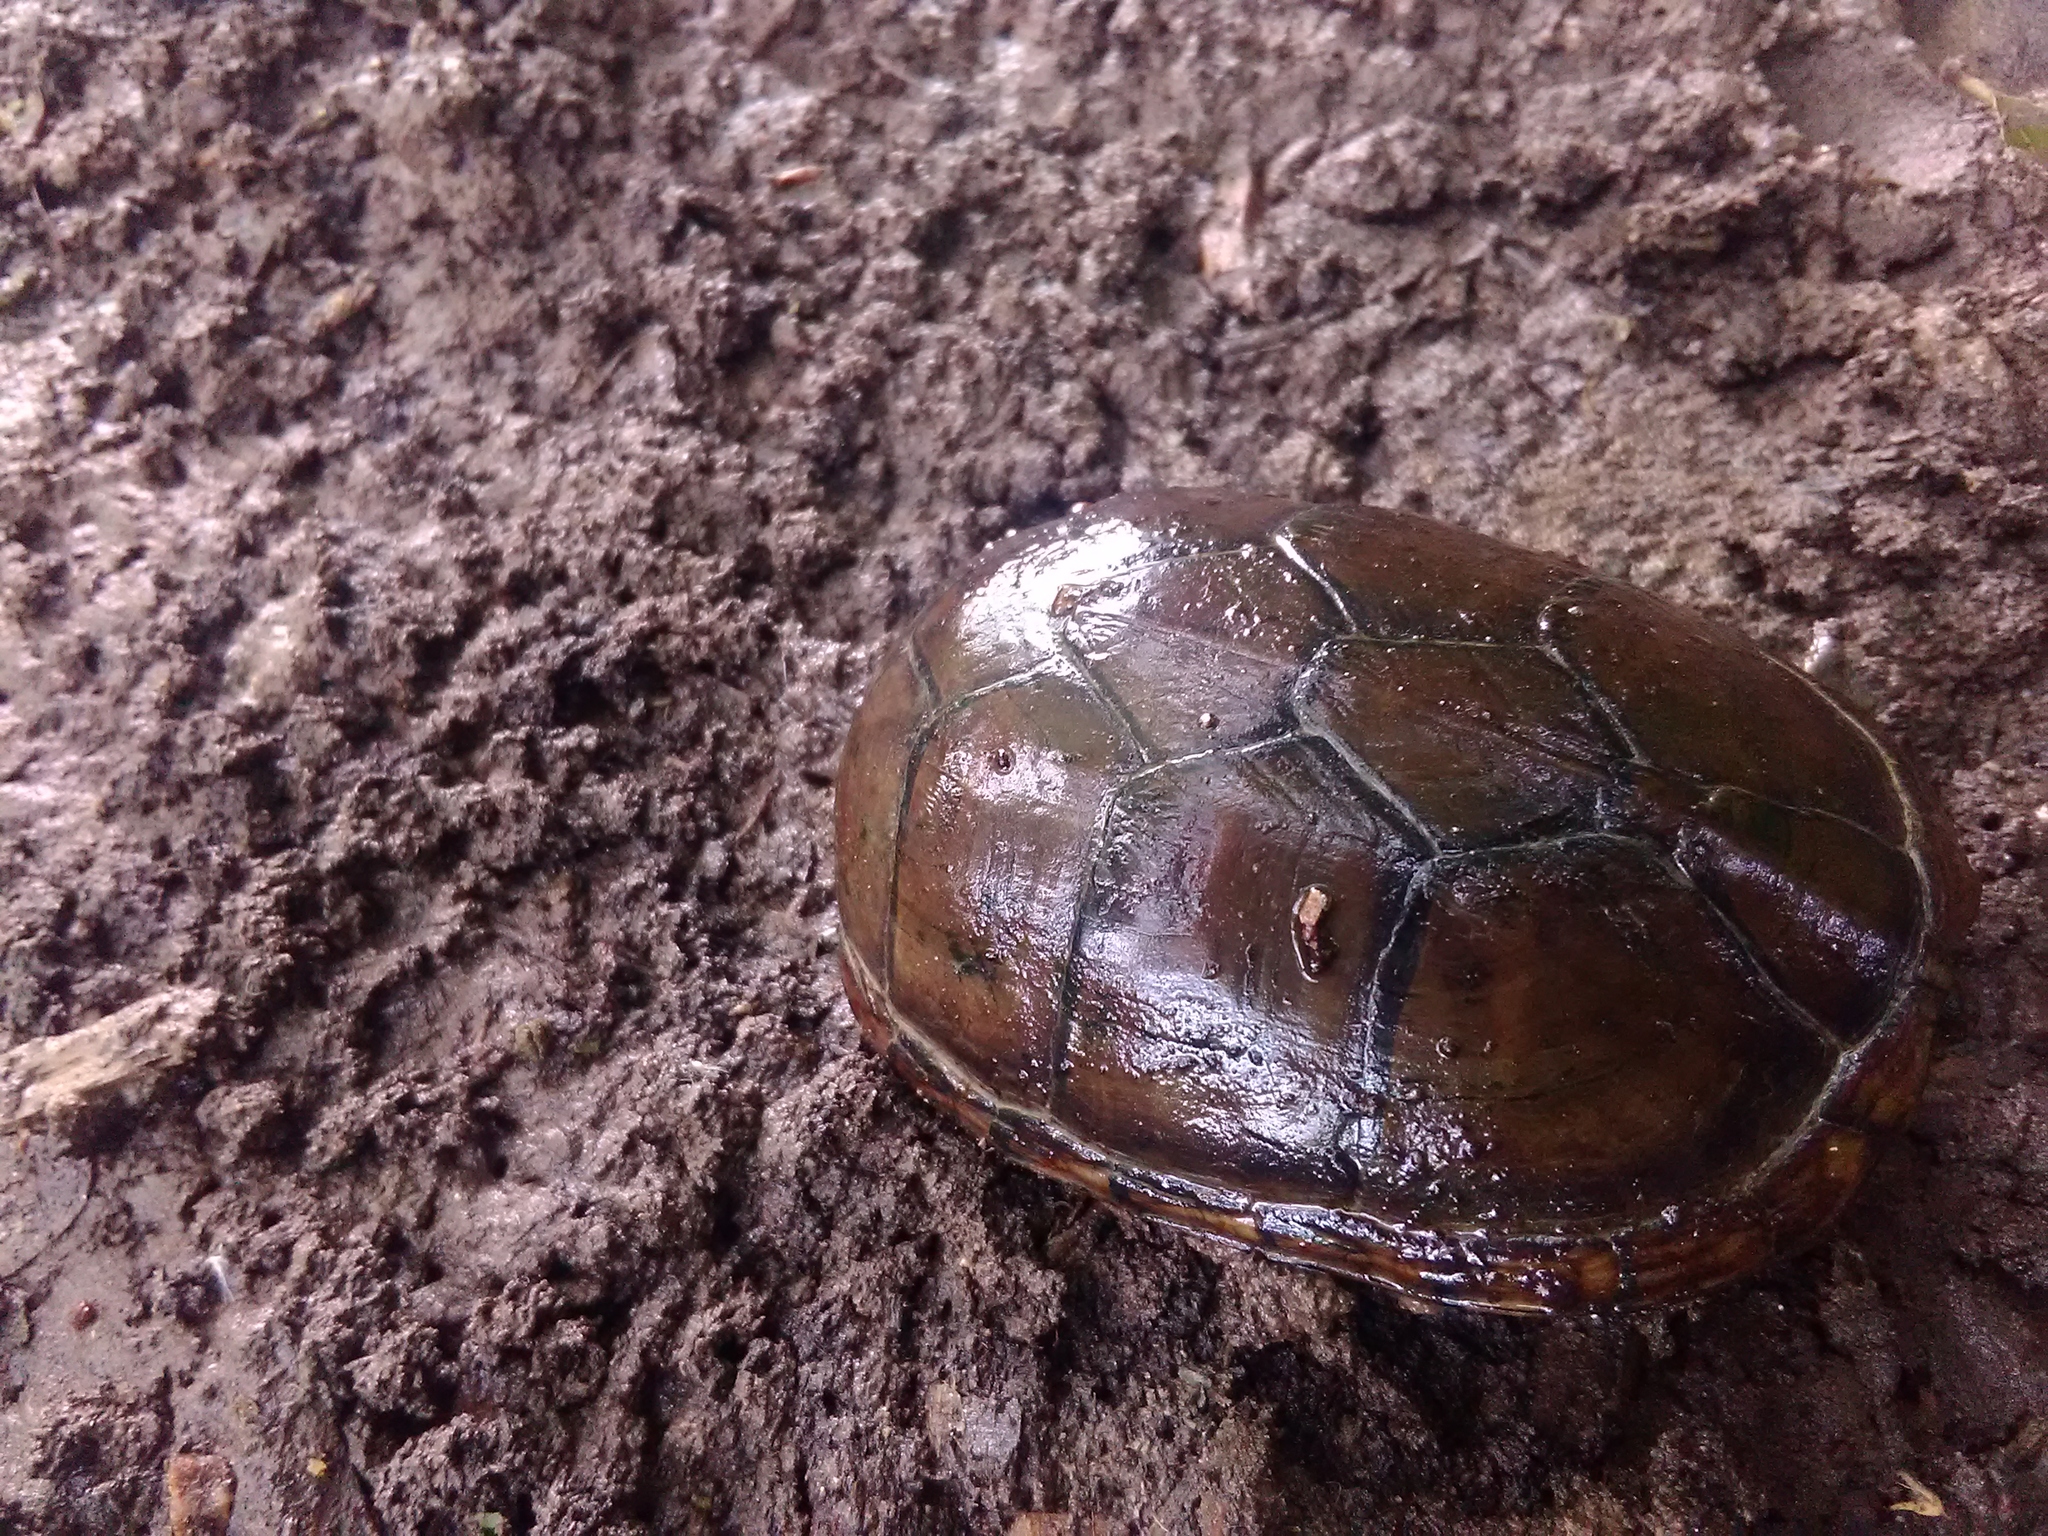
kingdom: Animalia
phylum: Chordata
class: Testudines
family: Kinosternidae
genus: Kinosternon
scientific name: Kinosternon subrubrum
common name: Eastern mud turtle
